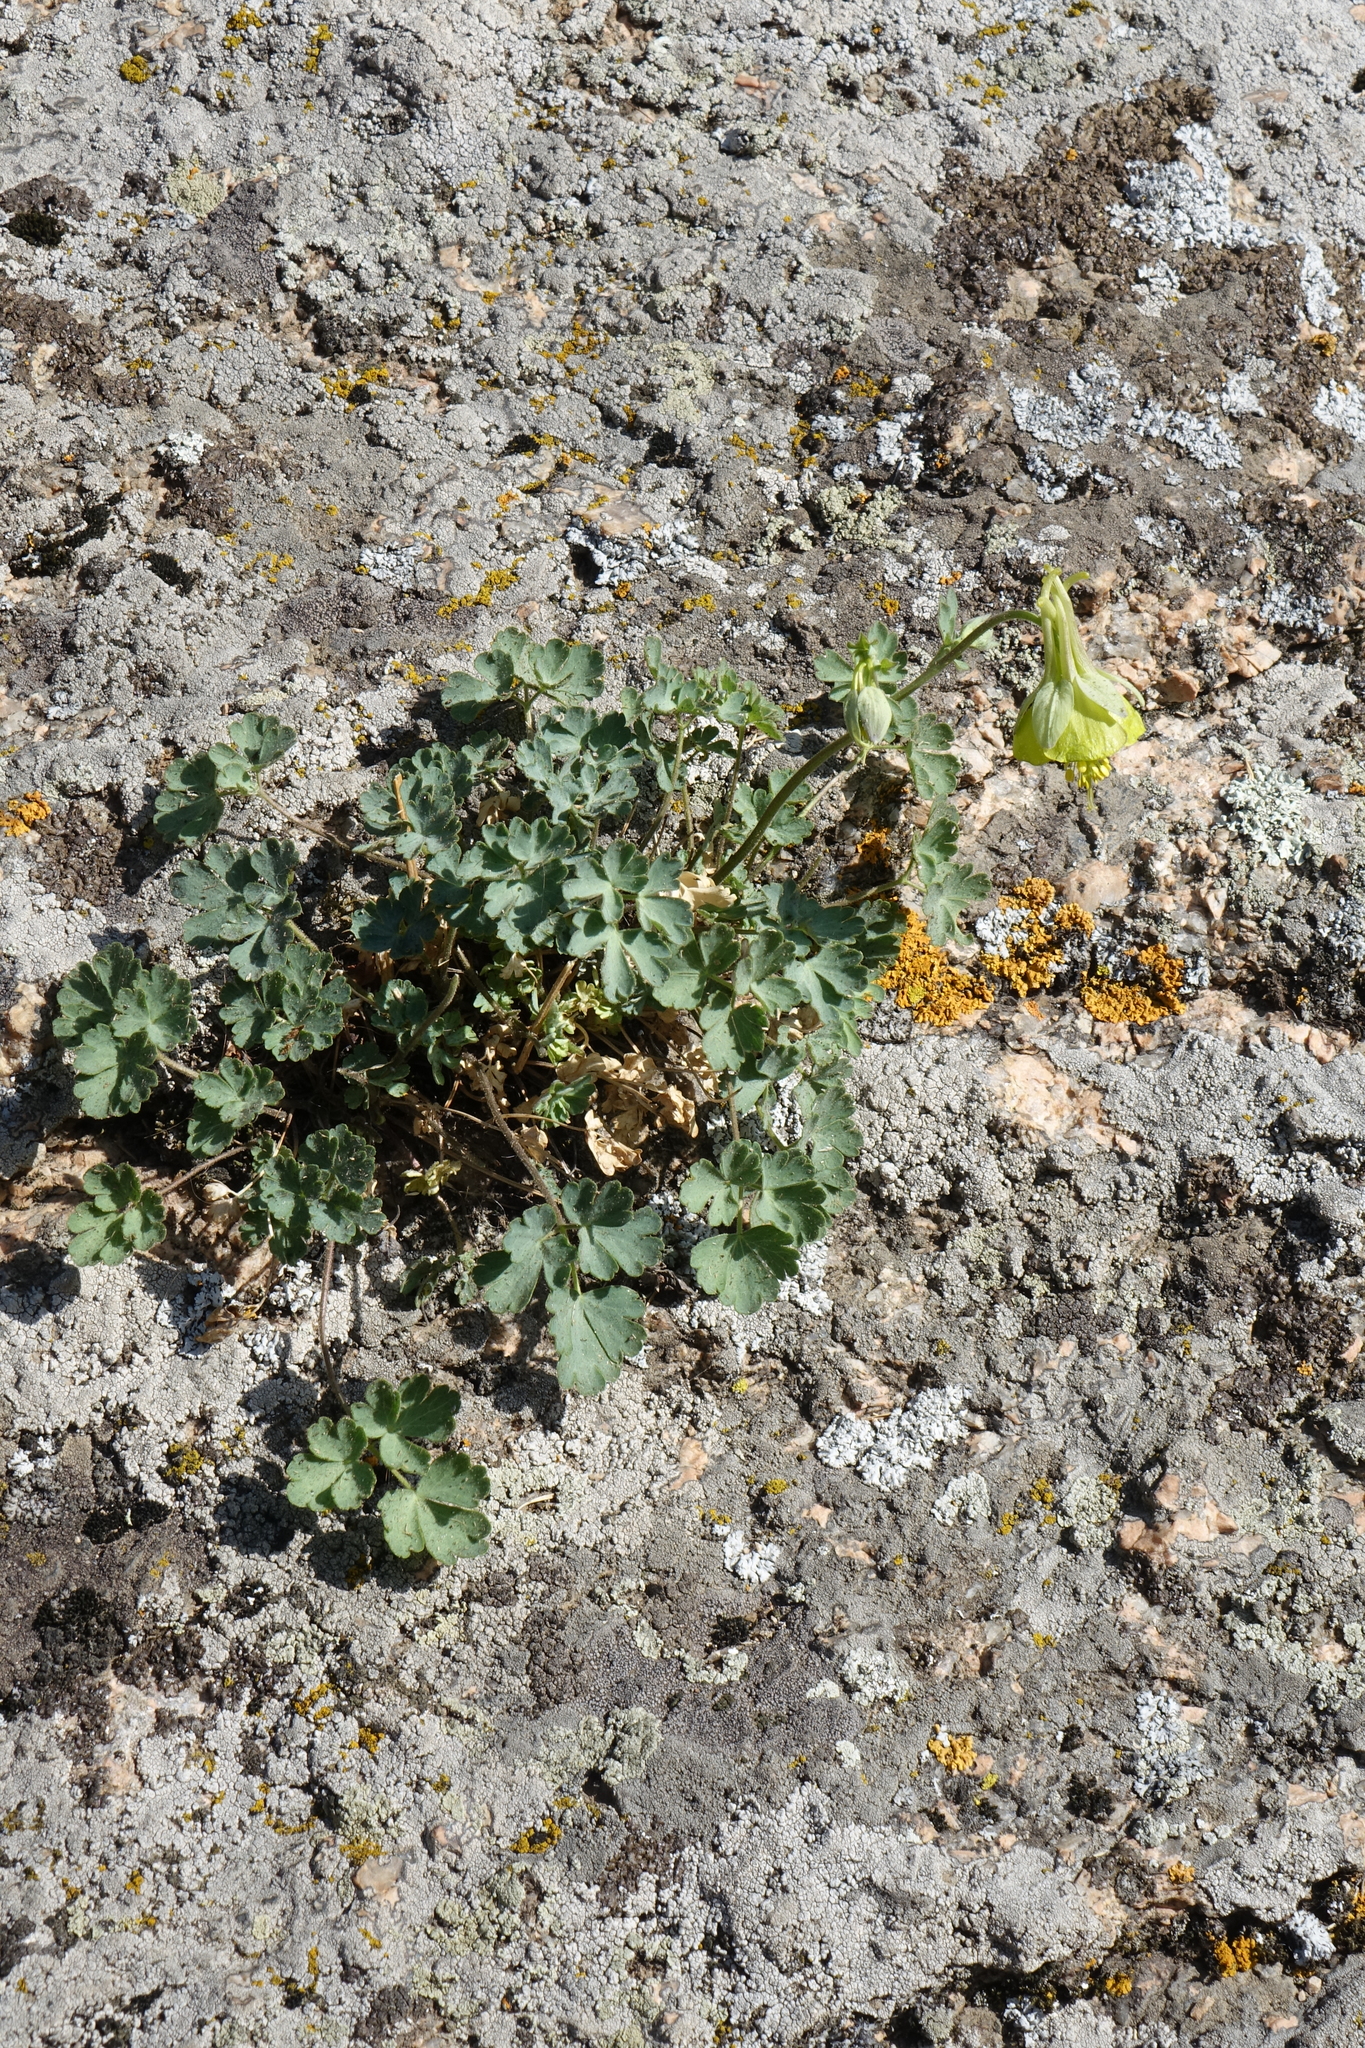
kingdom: Plantae
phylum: Tracheophyta
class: Magnoliopsida
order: Ranunculales
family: Ranunculaceae
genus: Aquilegia
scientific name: Aquilegia viridiflora
